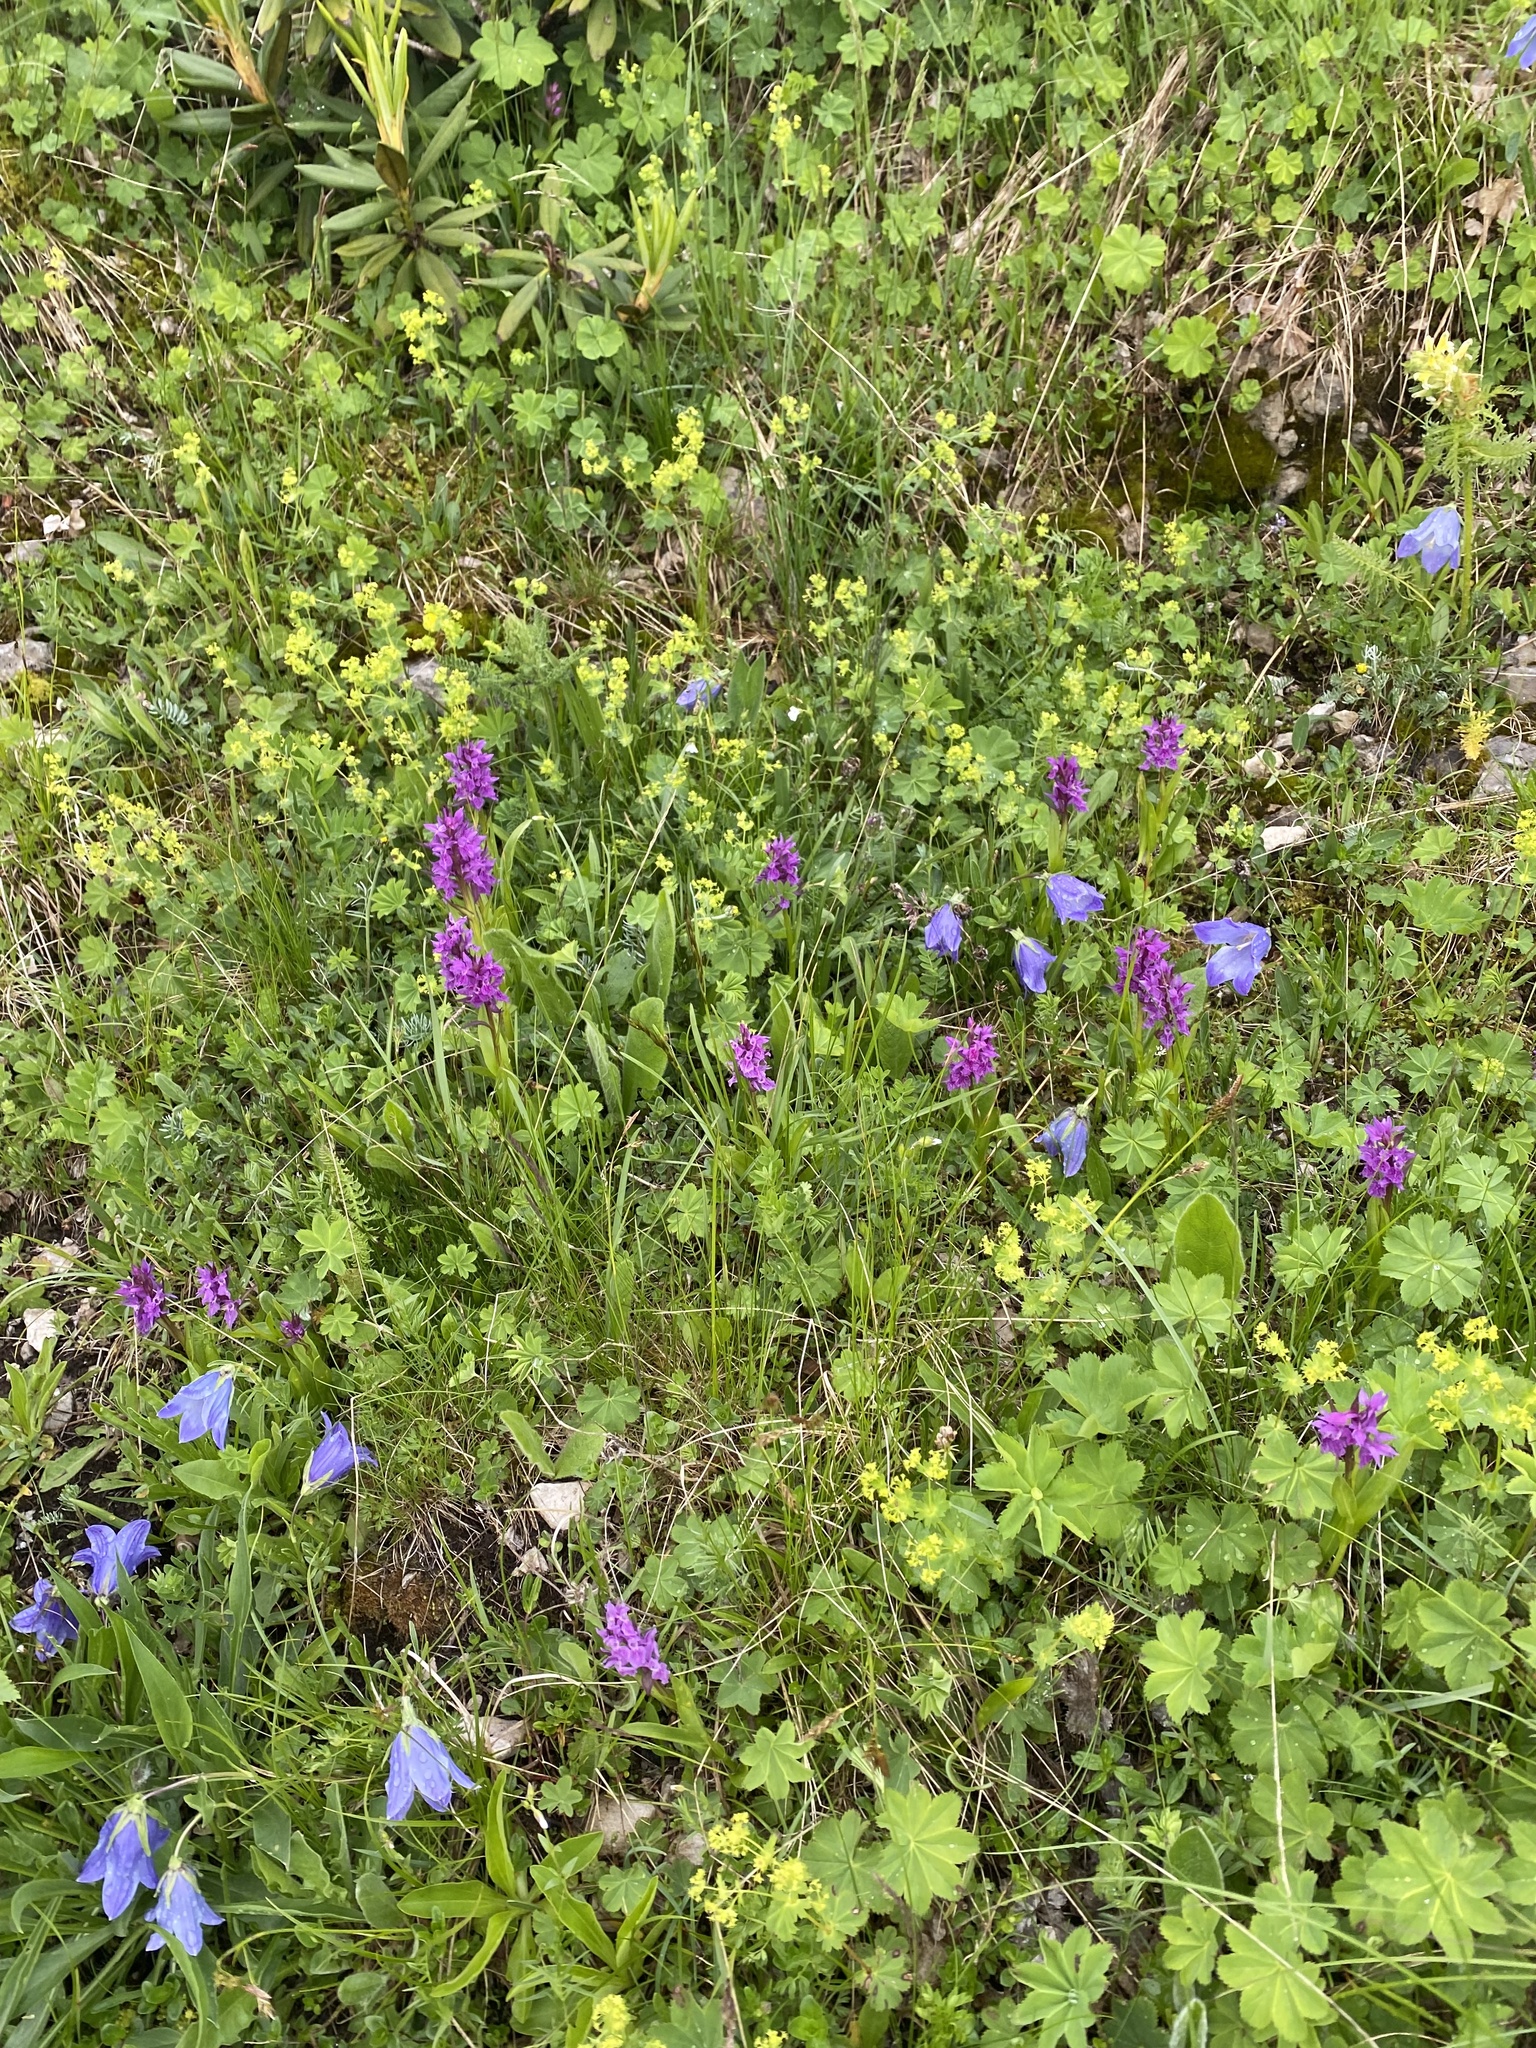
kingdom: Plantae
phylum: Tracheophyta
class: Liliopsida
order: Asparagales
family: Orchidaceae
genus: Dactylorhiza
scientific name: Dactylorhiza euxina
